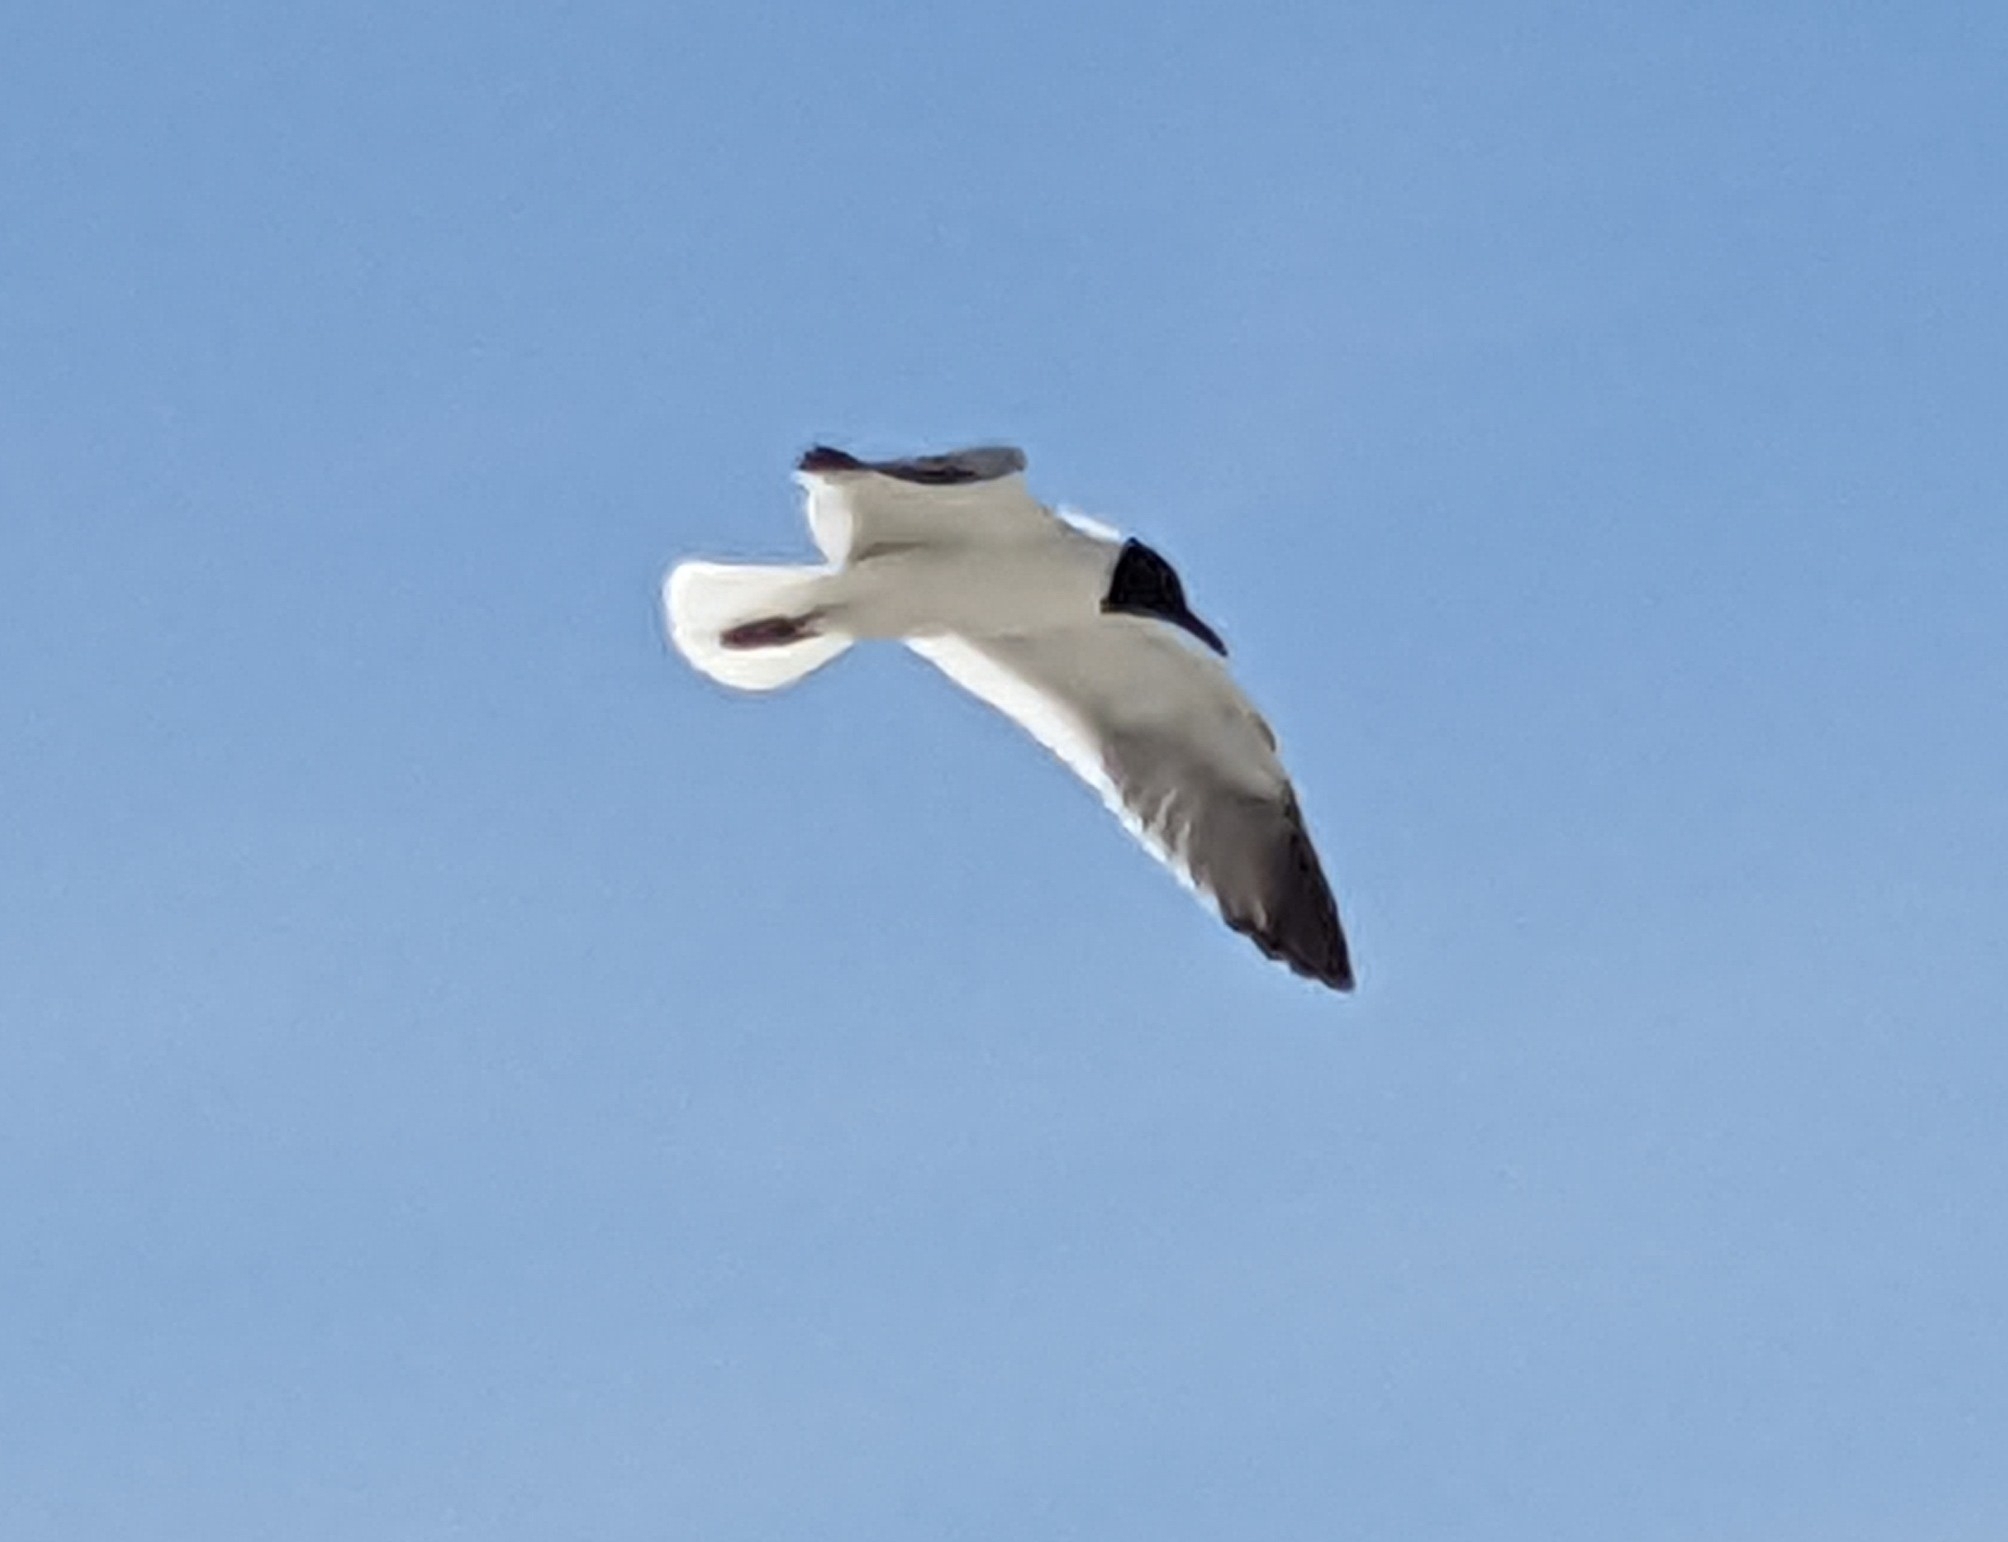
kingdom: Animalia
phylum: Chordata
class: Aves
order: Charadriiformes
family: Laridae
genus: Leucophaeus
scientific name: Leucophaeus atricilla
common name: Laughing gull
